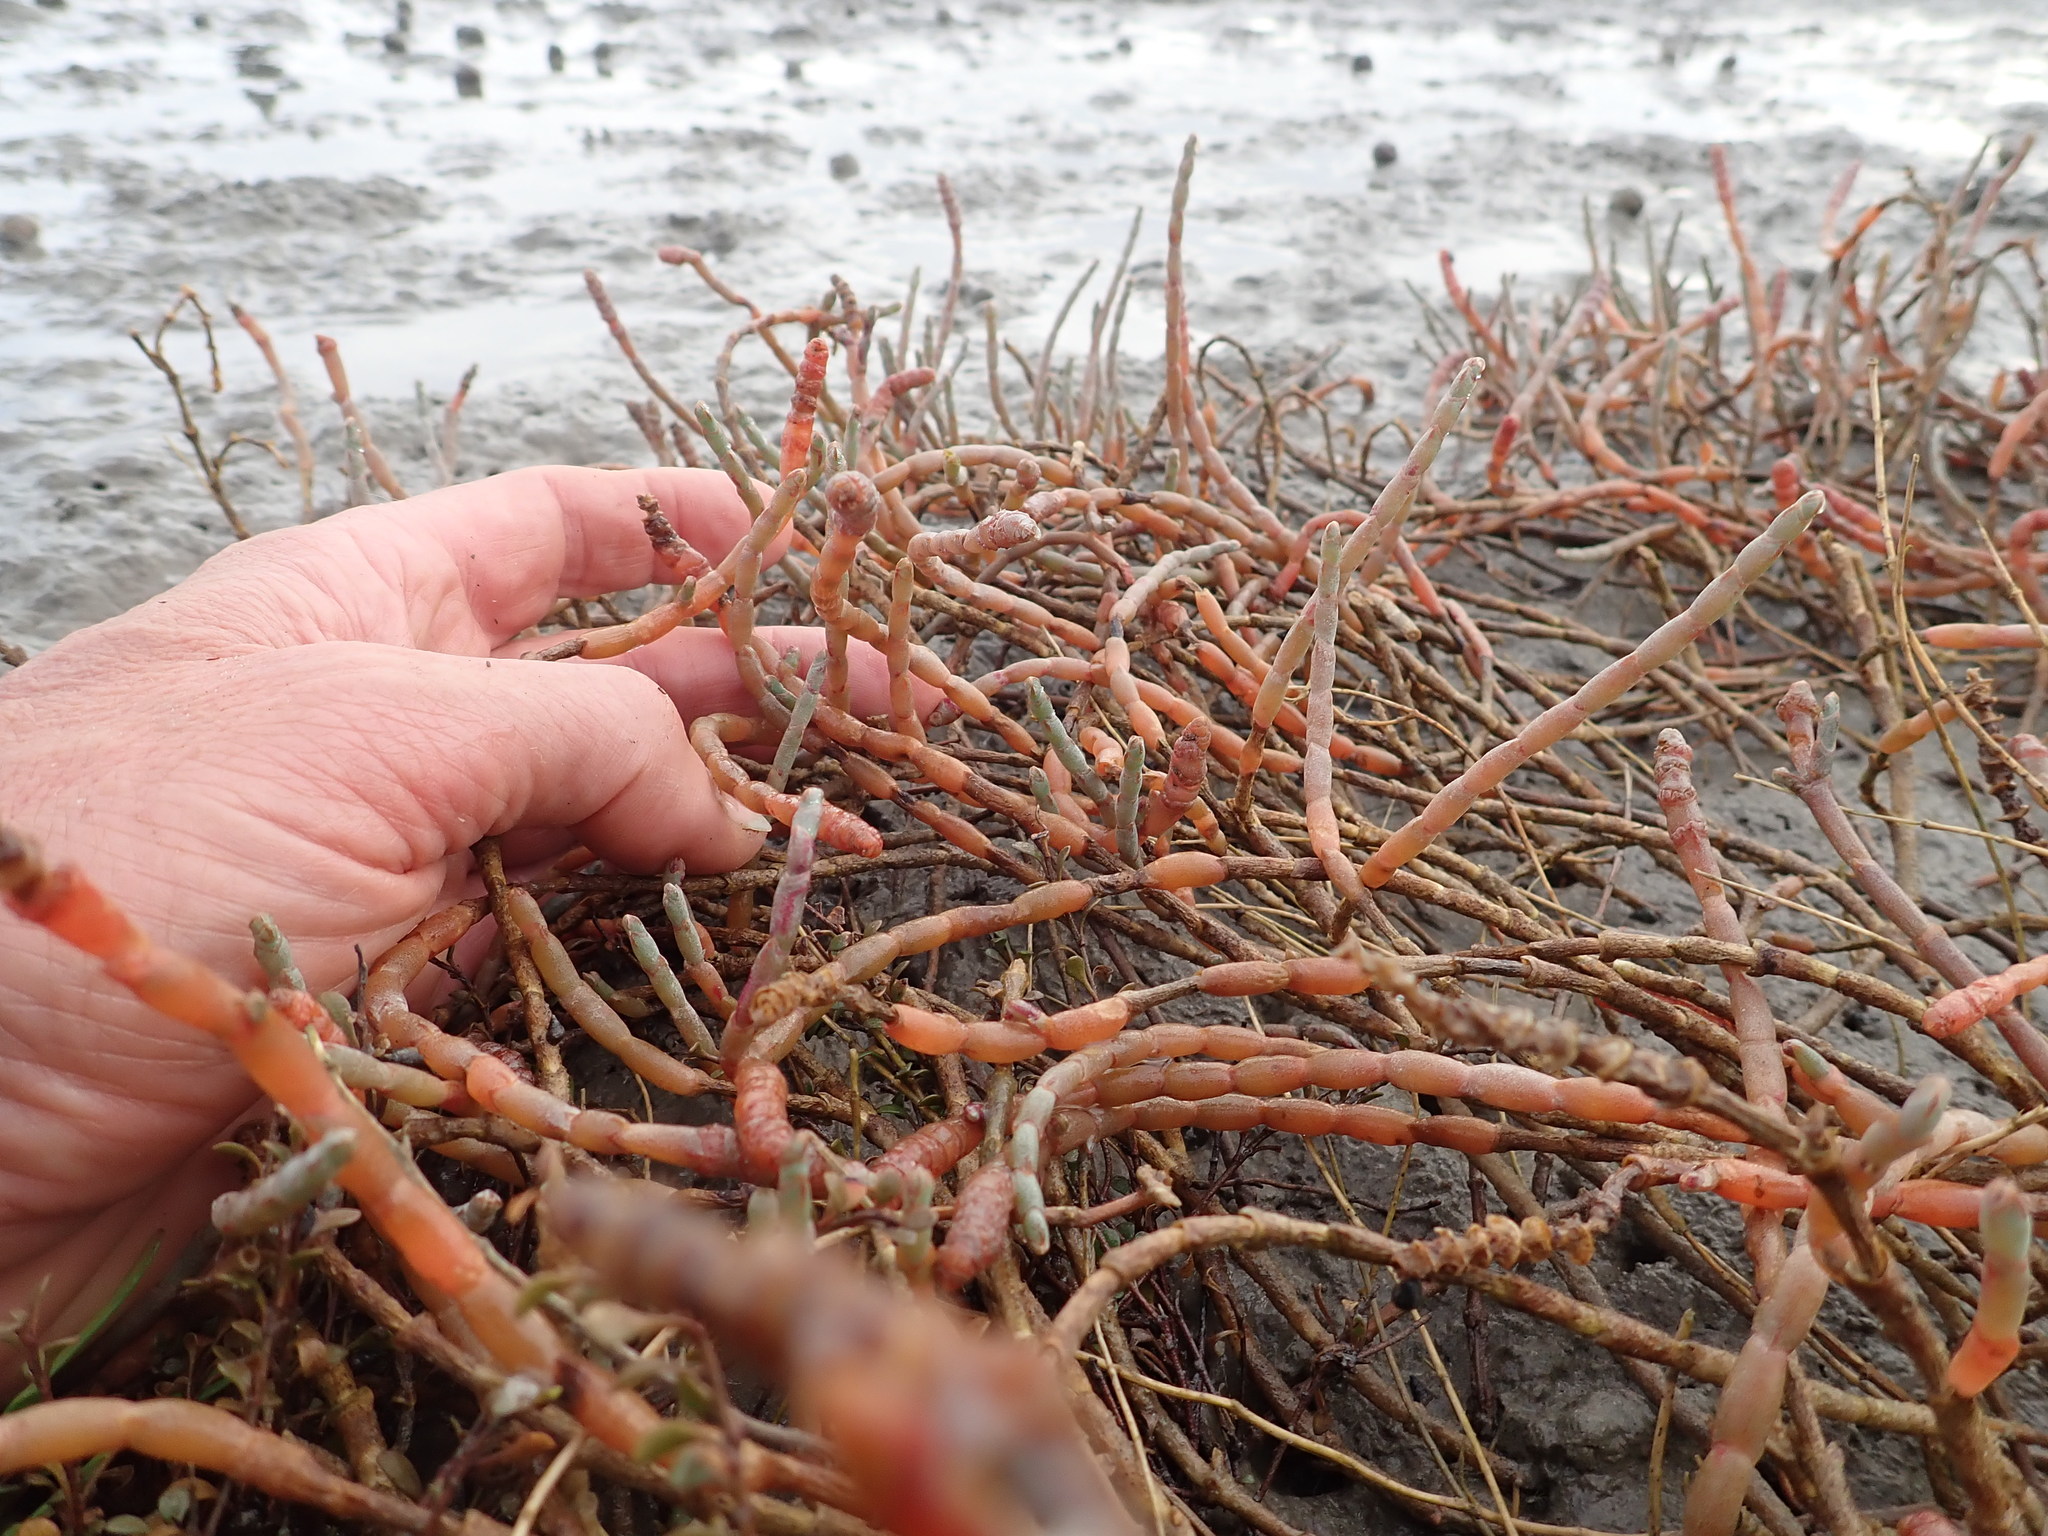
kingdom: Plantae
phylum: Tracheophyta
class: Magnoliopsida
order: Caryophyllales
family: Amaranthaceae
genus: Salicornia
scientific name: Salicornia quinqueflora
